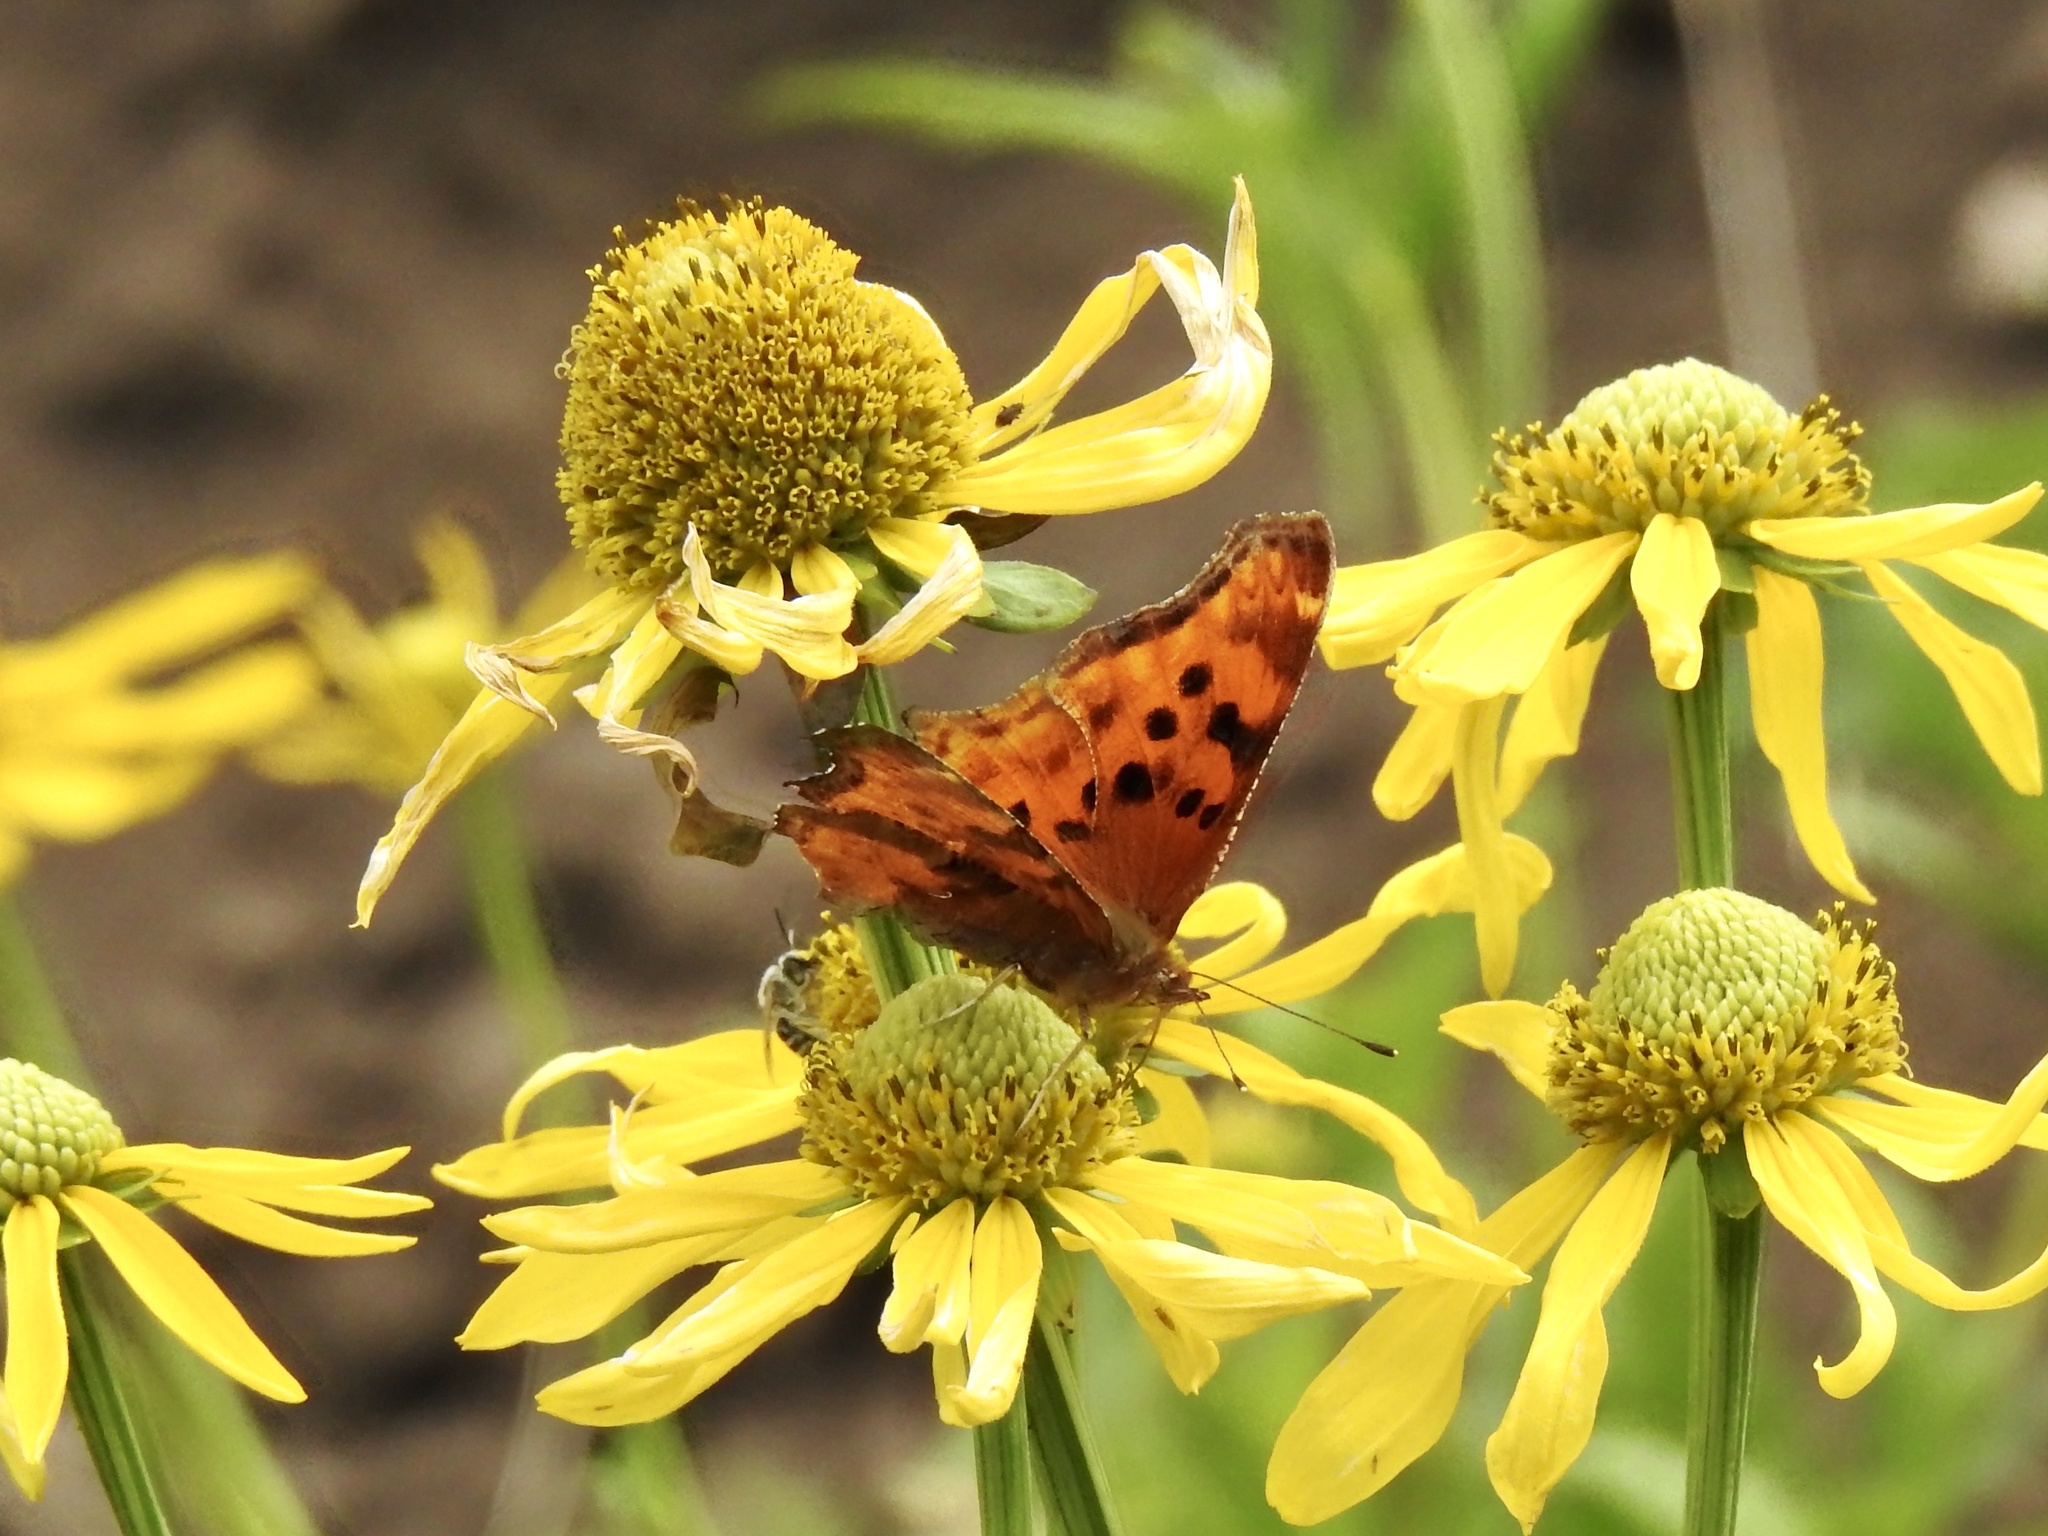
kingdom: Animalia
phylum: Arthropoda
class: Insecta
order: Lepidoptera
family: Nymphalidae
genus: Polygonia
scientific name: Polygonia satyrus
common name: Satyr angle wing
